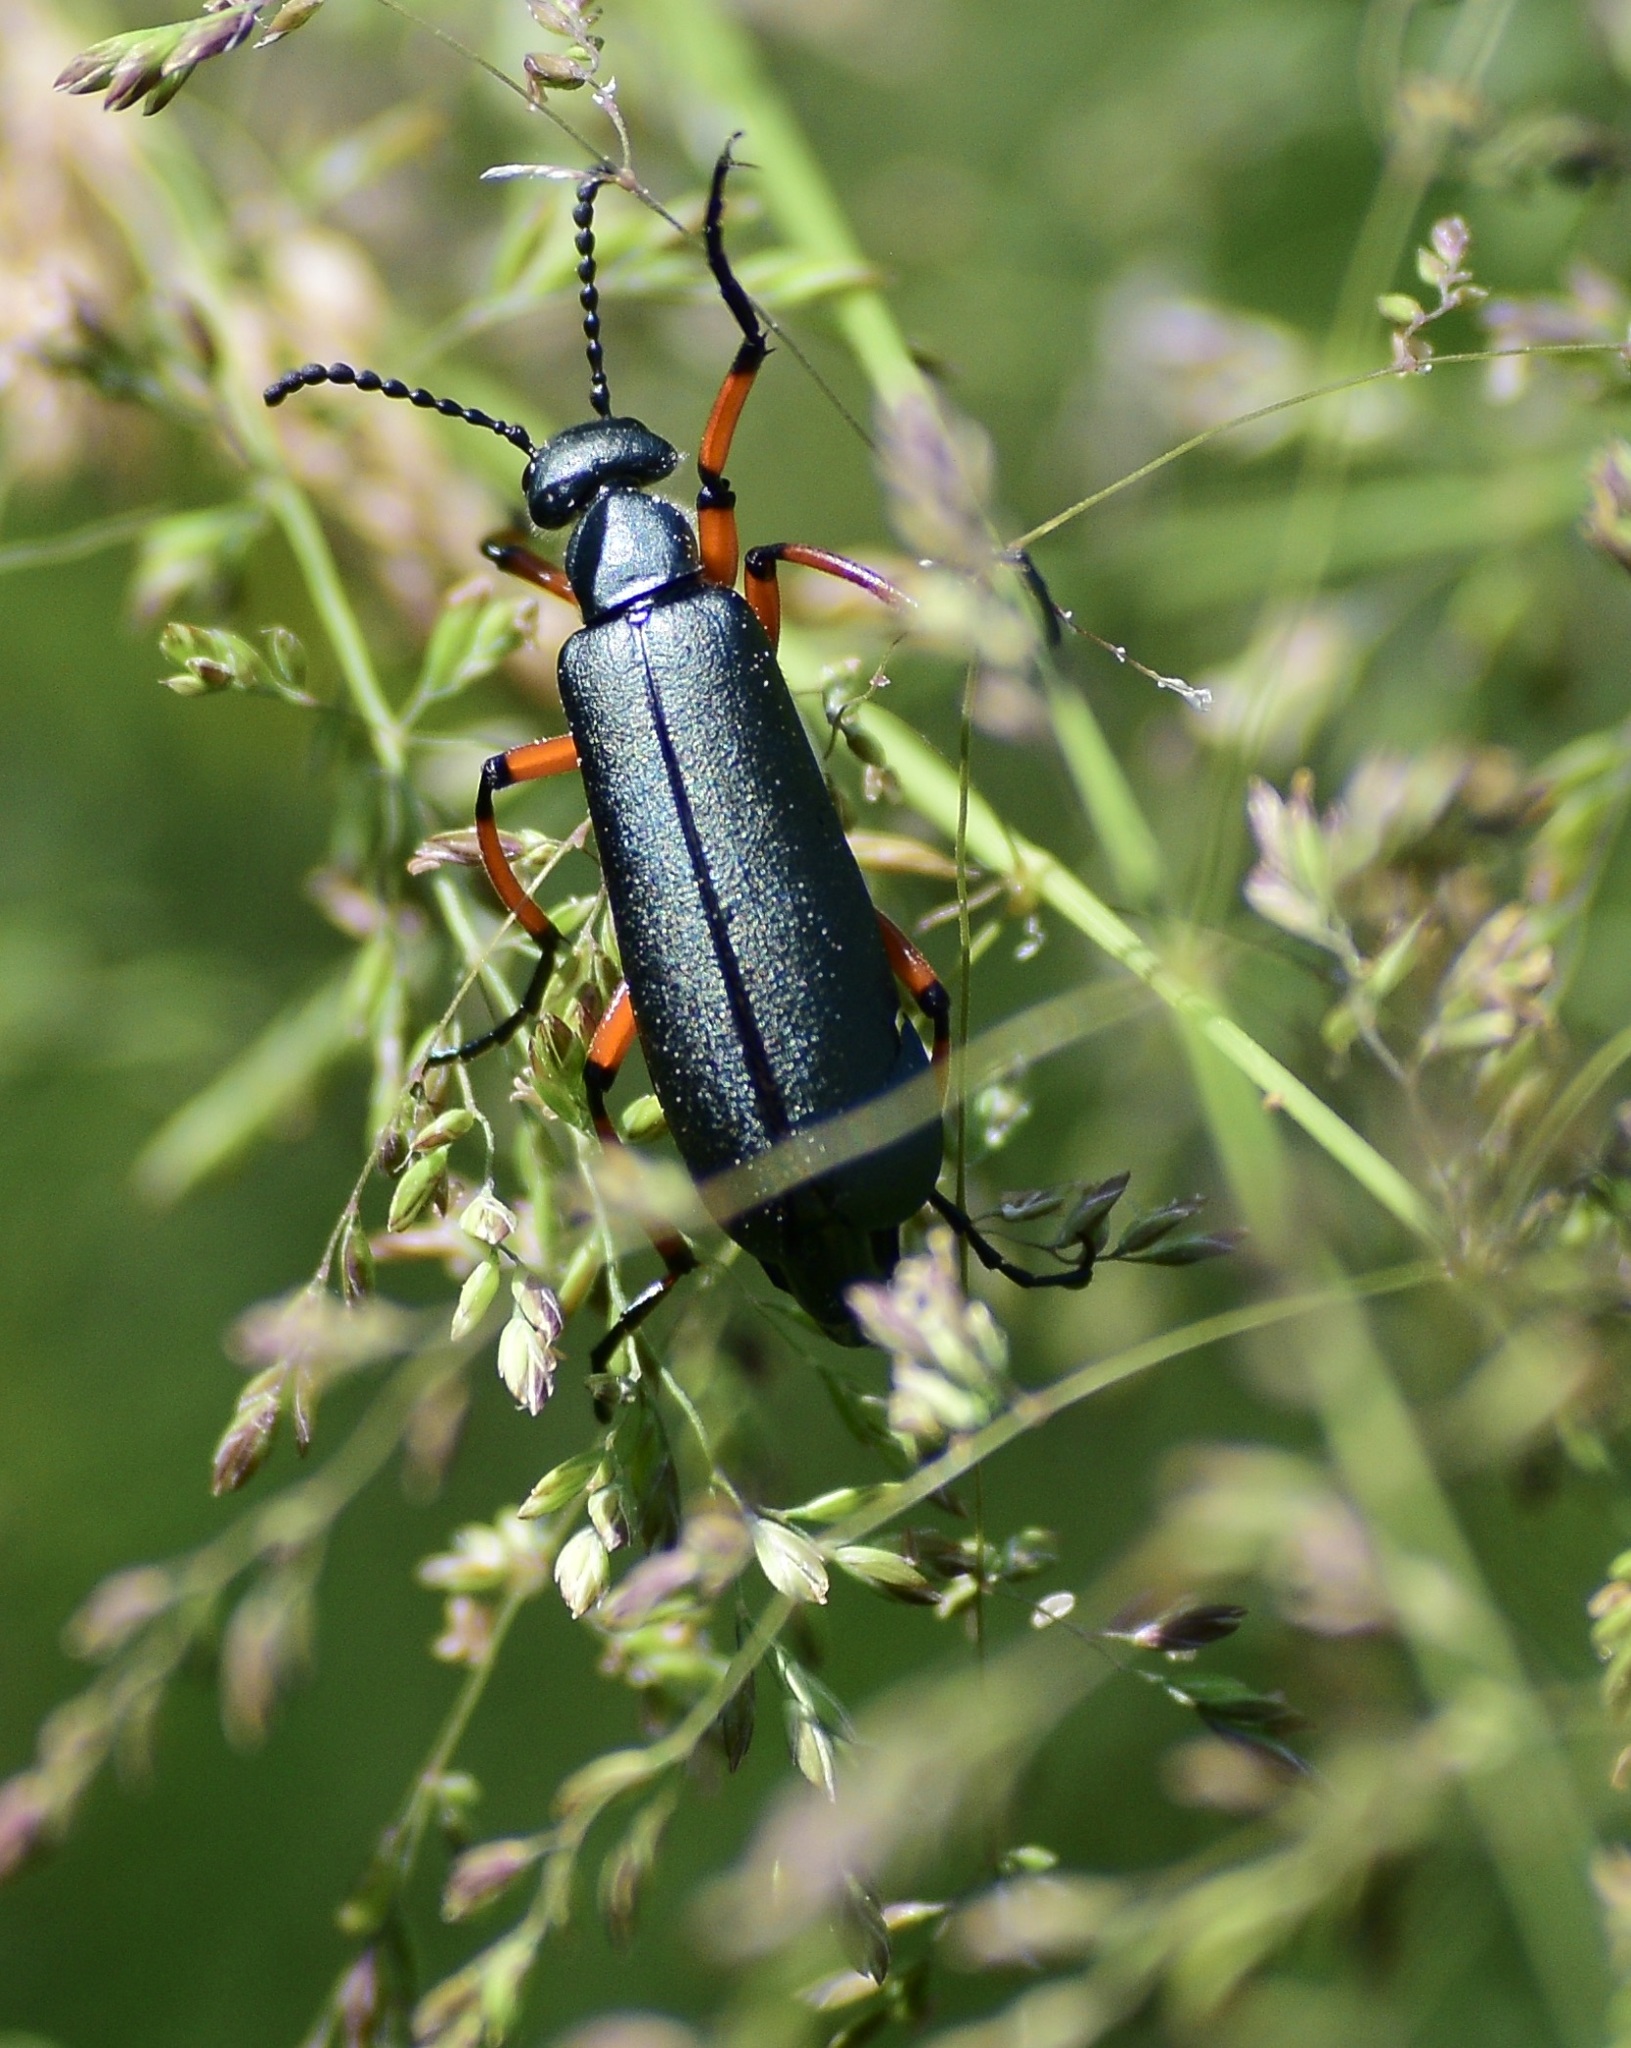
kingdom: Animalia
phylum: Arthropoda
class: Insecta
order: Coleoptera
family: Meloidae
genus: Lytta
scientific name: Lytta sayi
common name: Say's blister beetle
